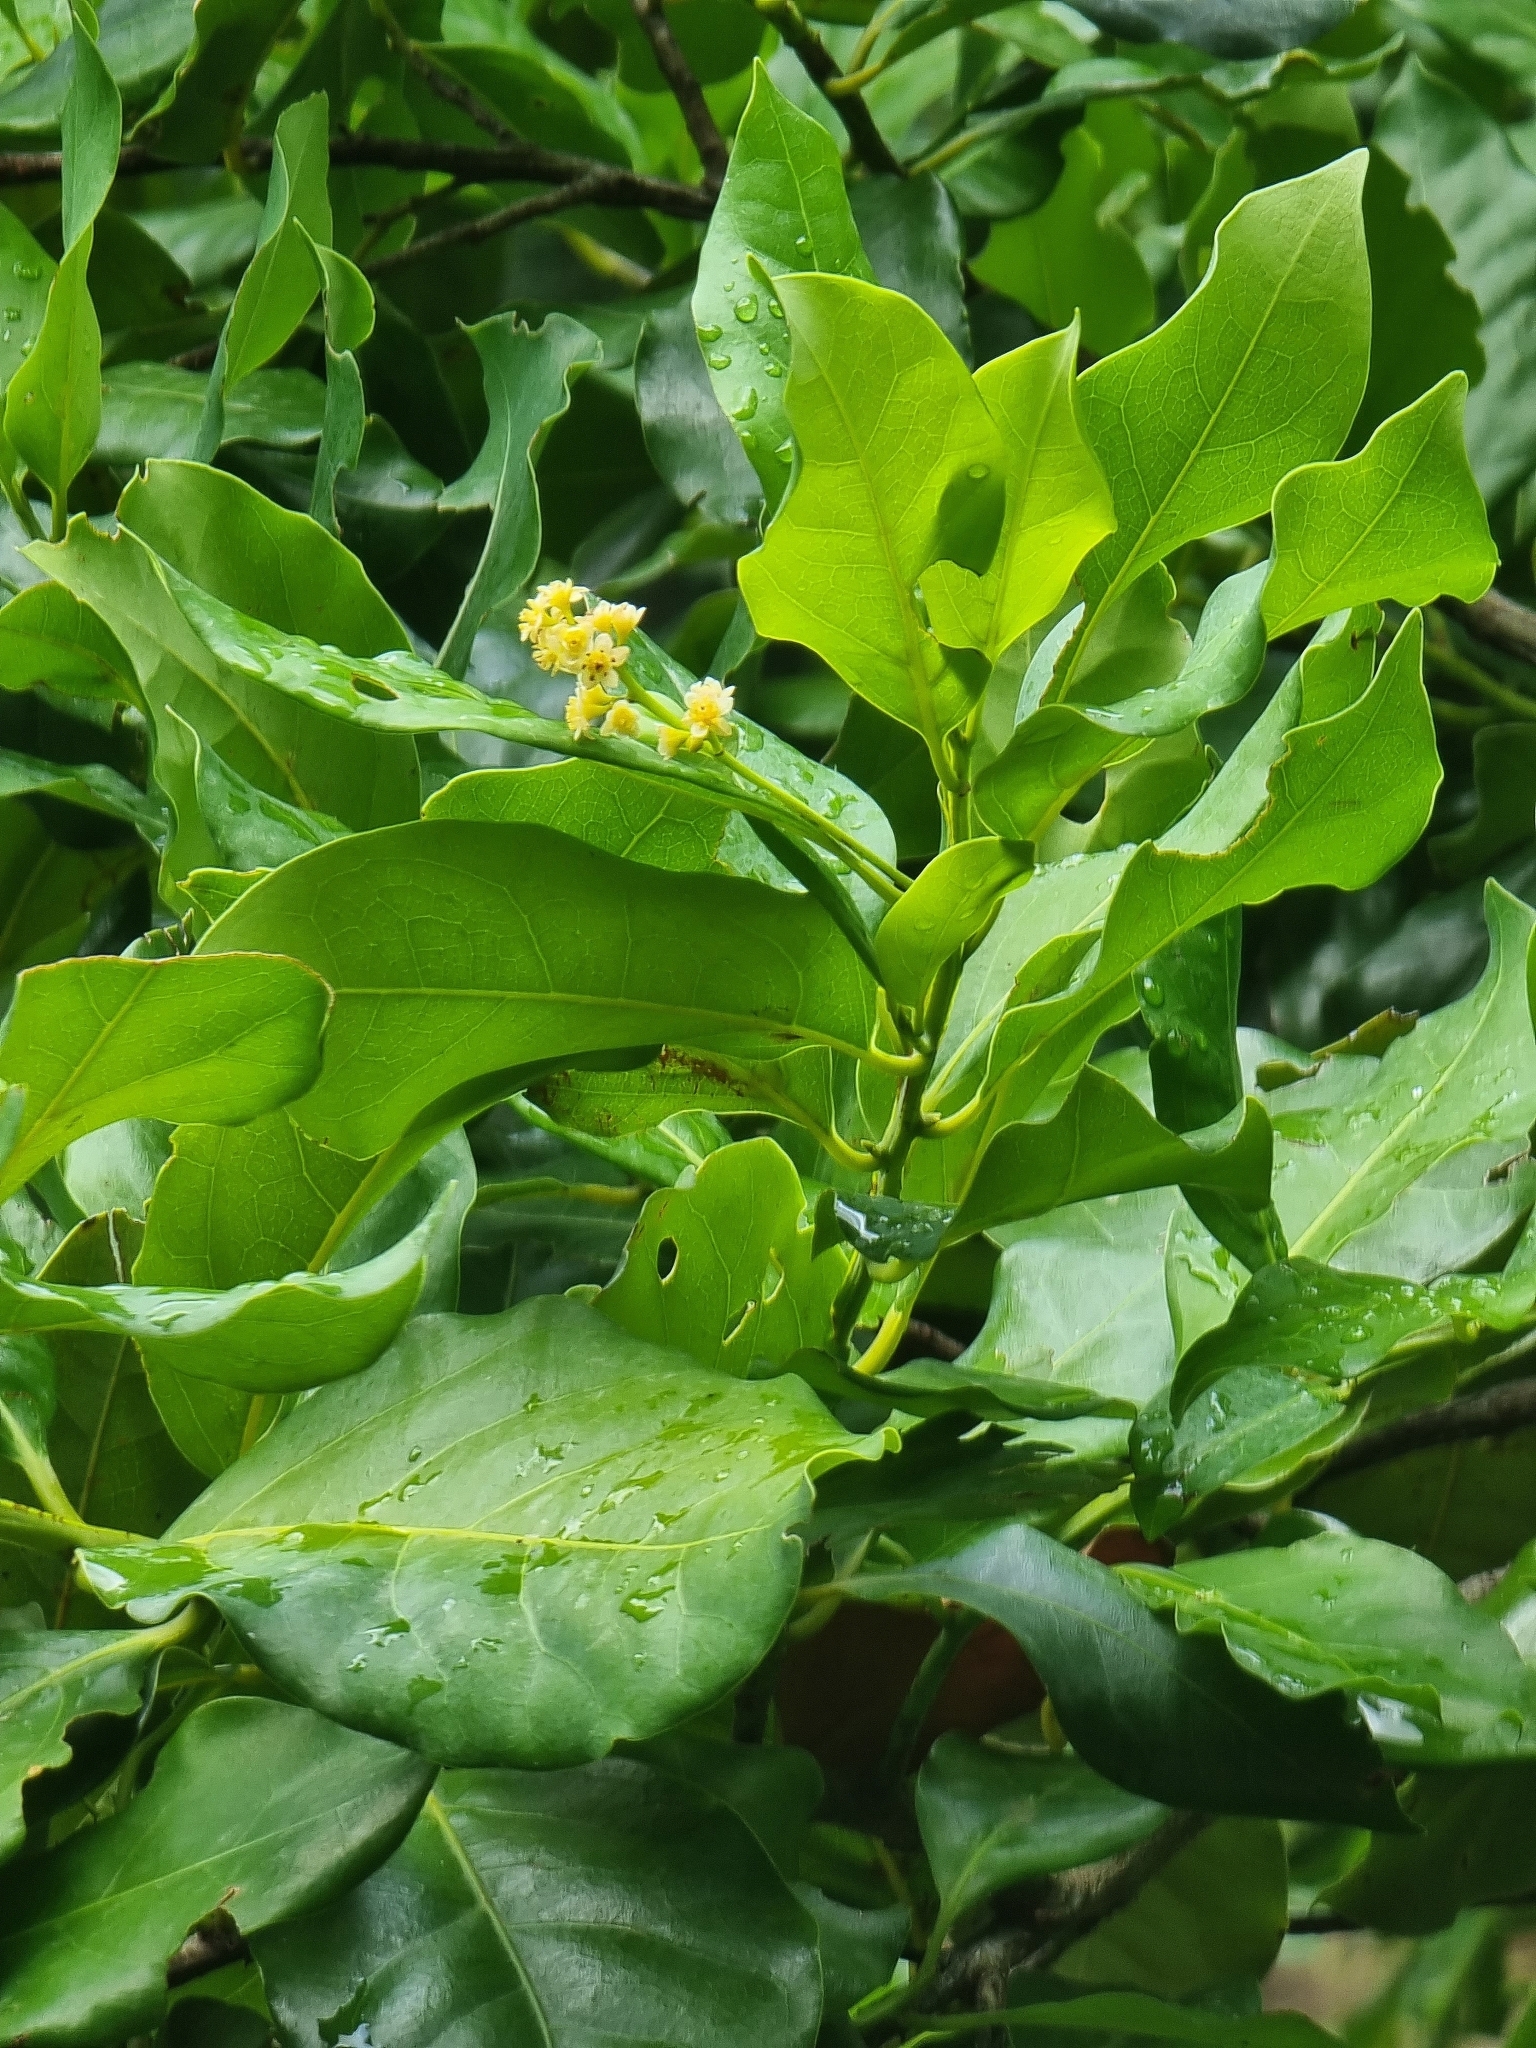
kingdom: Plantae
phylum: Tracheophyta
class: Magnoliopsida
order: Laurales
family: Lauraceae
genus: Mespilodaphne
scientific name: Mespilodaphne foetens
